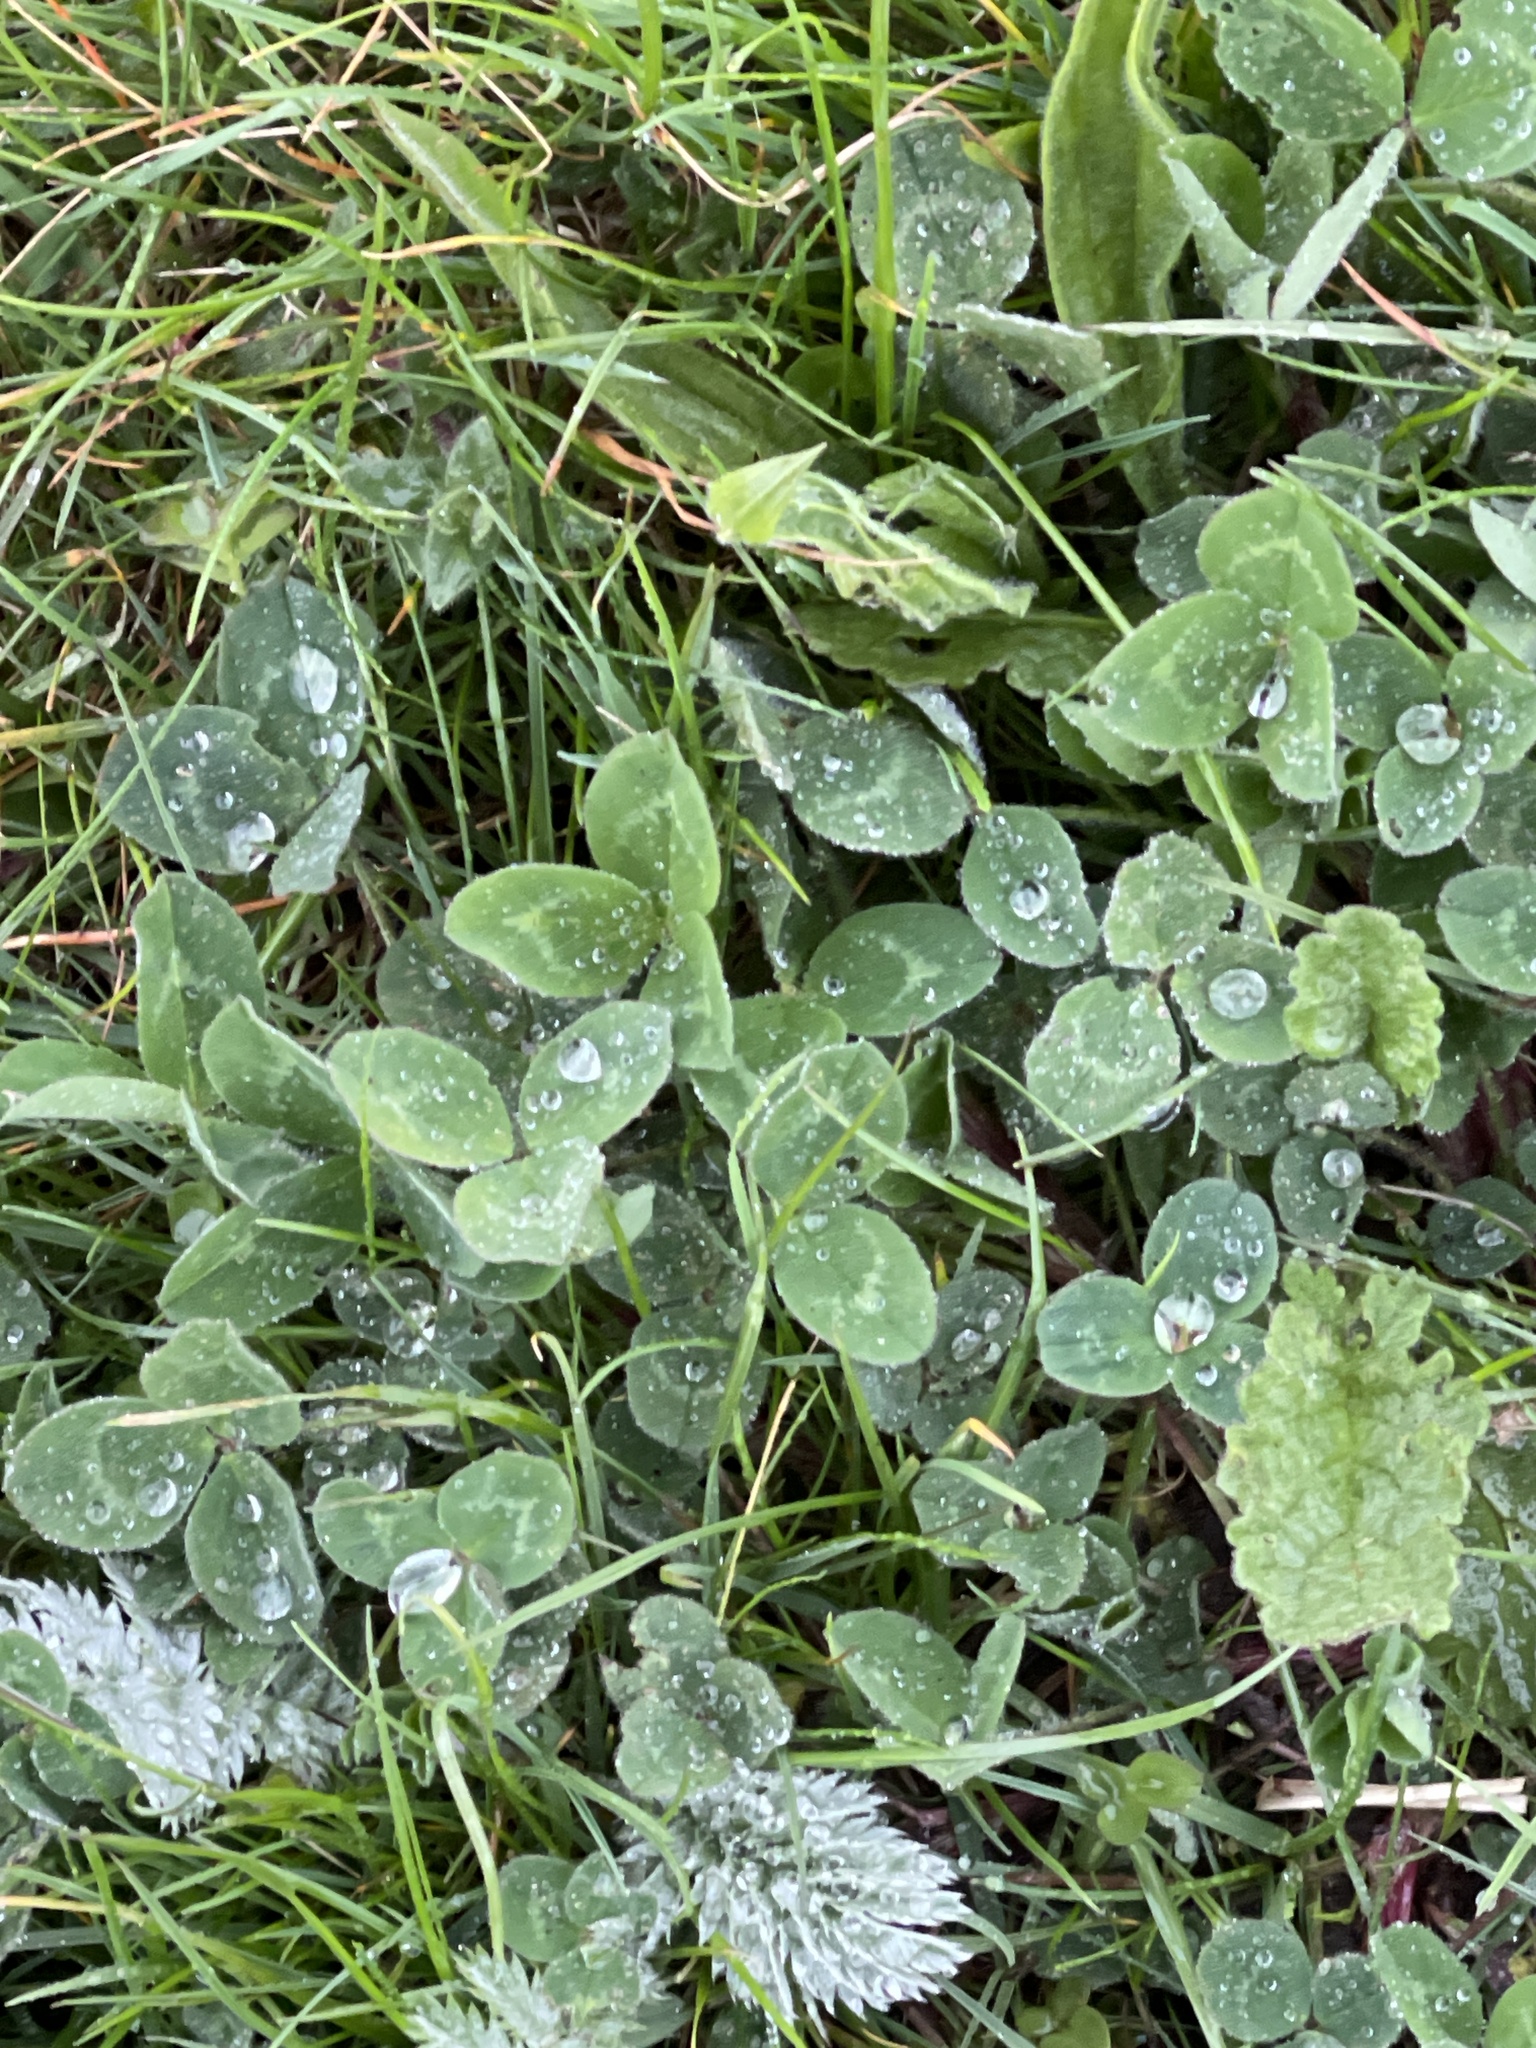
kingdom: Plantae
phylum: Tracheophyta
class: Magnoliopsida
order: Fabales
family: Fabaceae
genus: Trifolium
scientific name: Trifolium pratense
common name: Red clover
